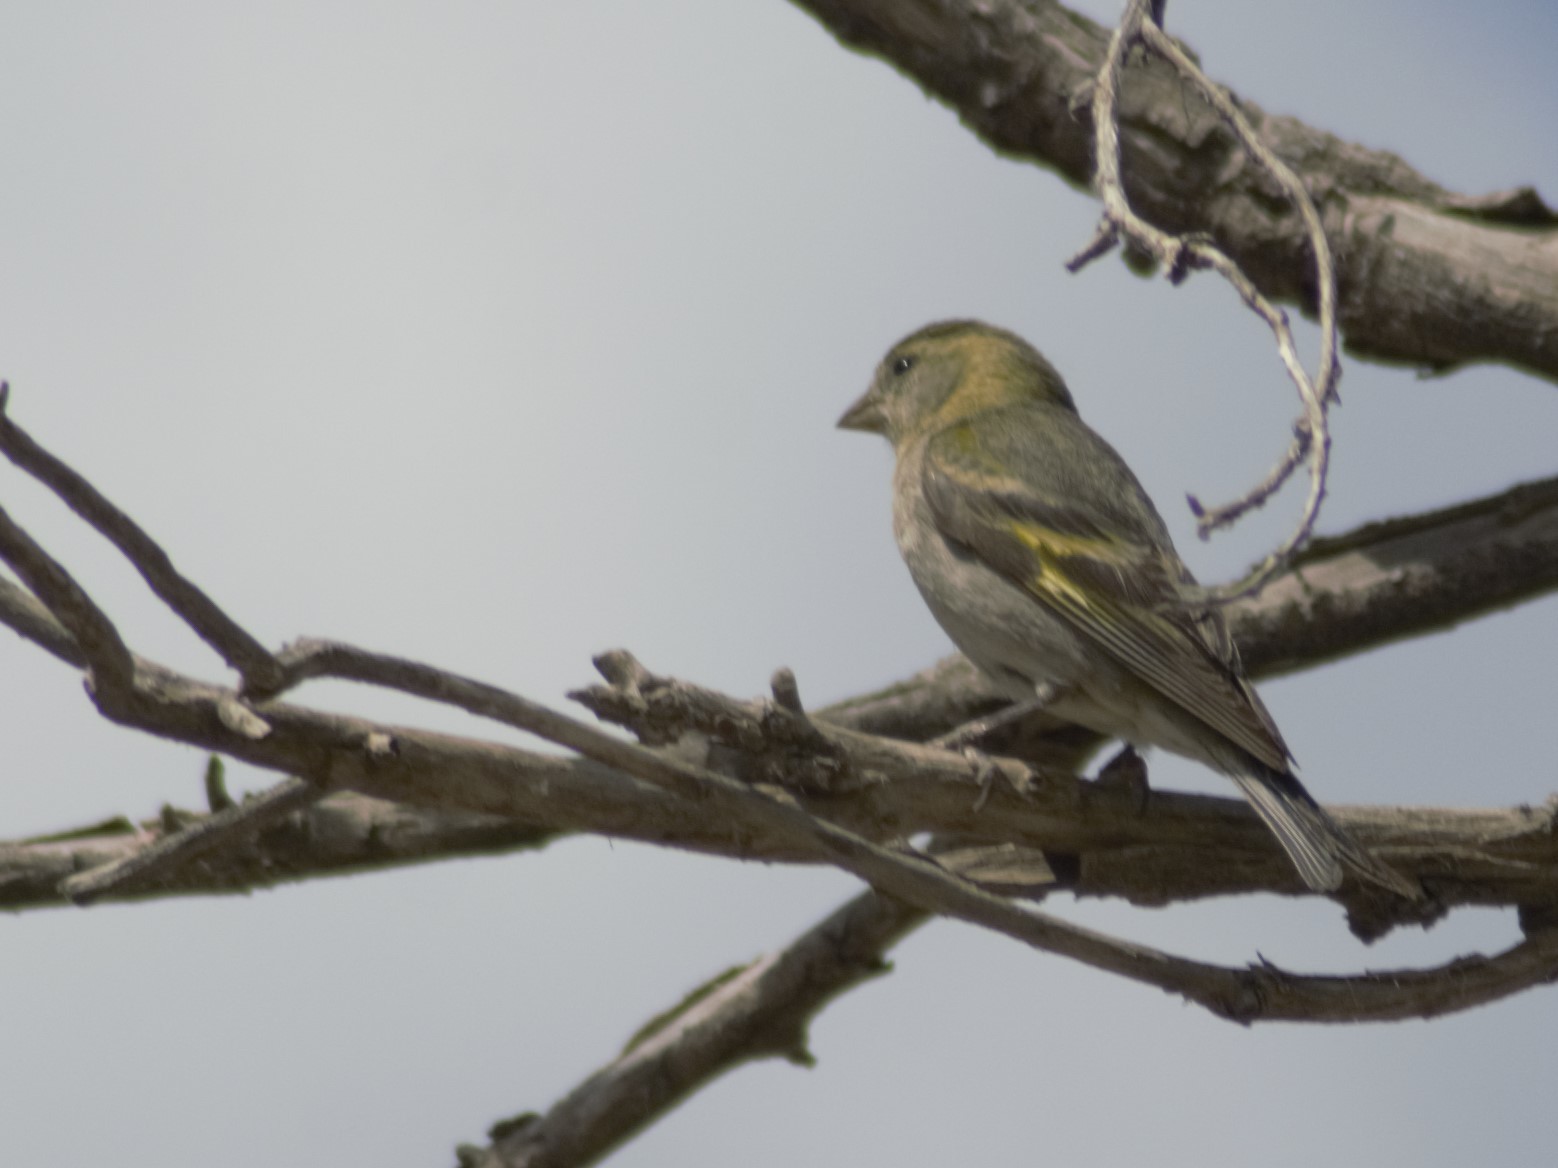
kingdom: Animalia
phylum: Chordata
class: Aves
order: Passeriformes
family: Fringillidae
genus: Spinus
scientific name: Spinus barbatus
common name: Black-chinned siskin
